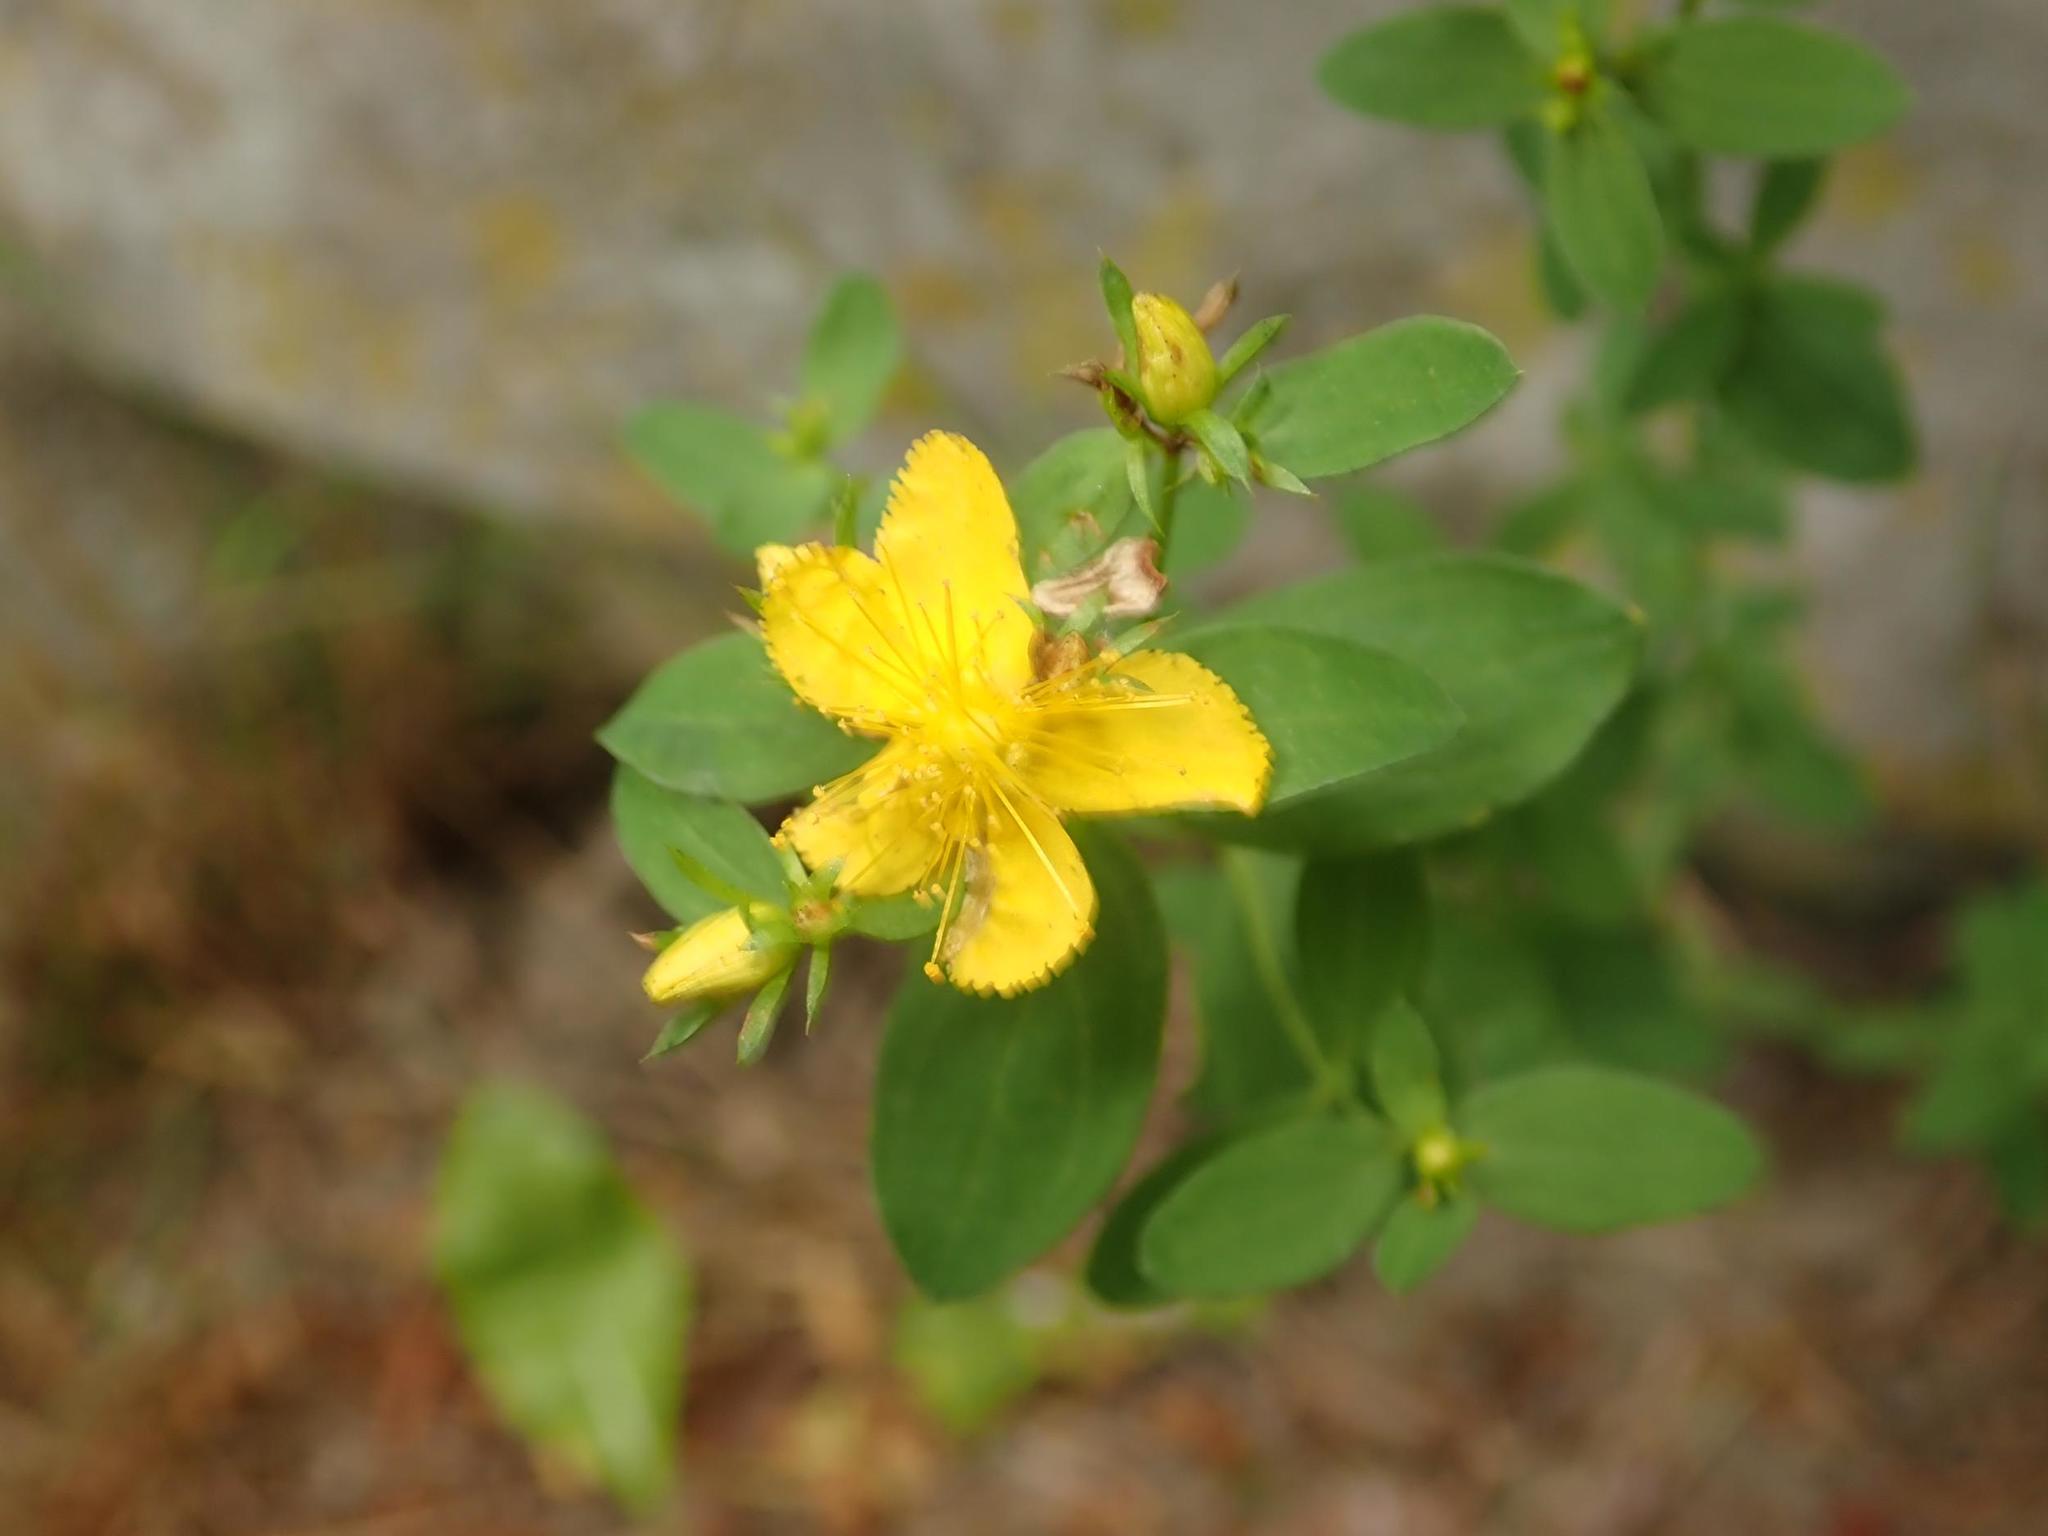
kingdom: Plantae
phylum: Tracheophyta
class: Magnoliopsida
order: Malpighiales
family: Hypericaceae
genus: Hypericum
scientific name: Hypericum perforatum
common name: Common st. johnswort
